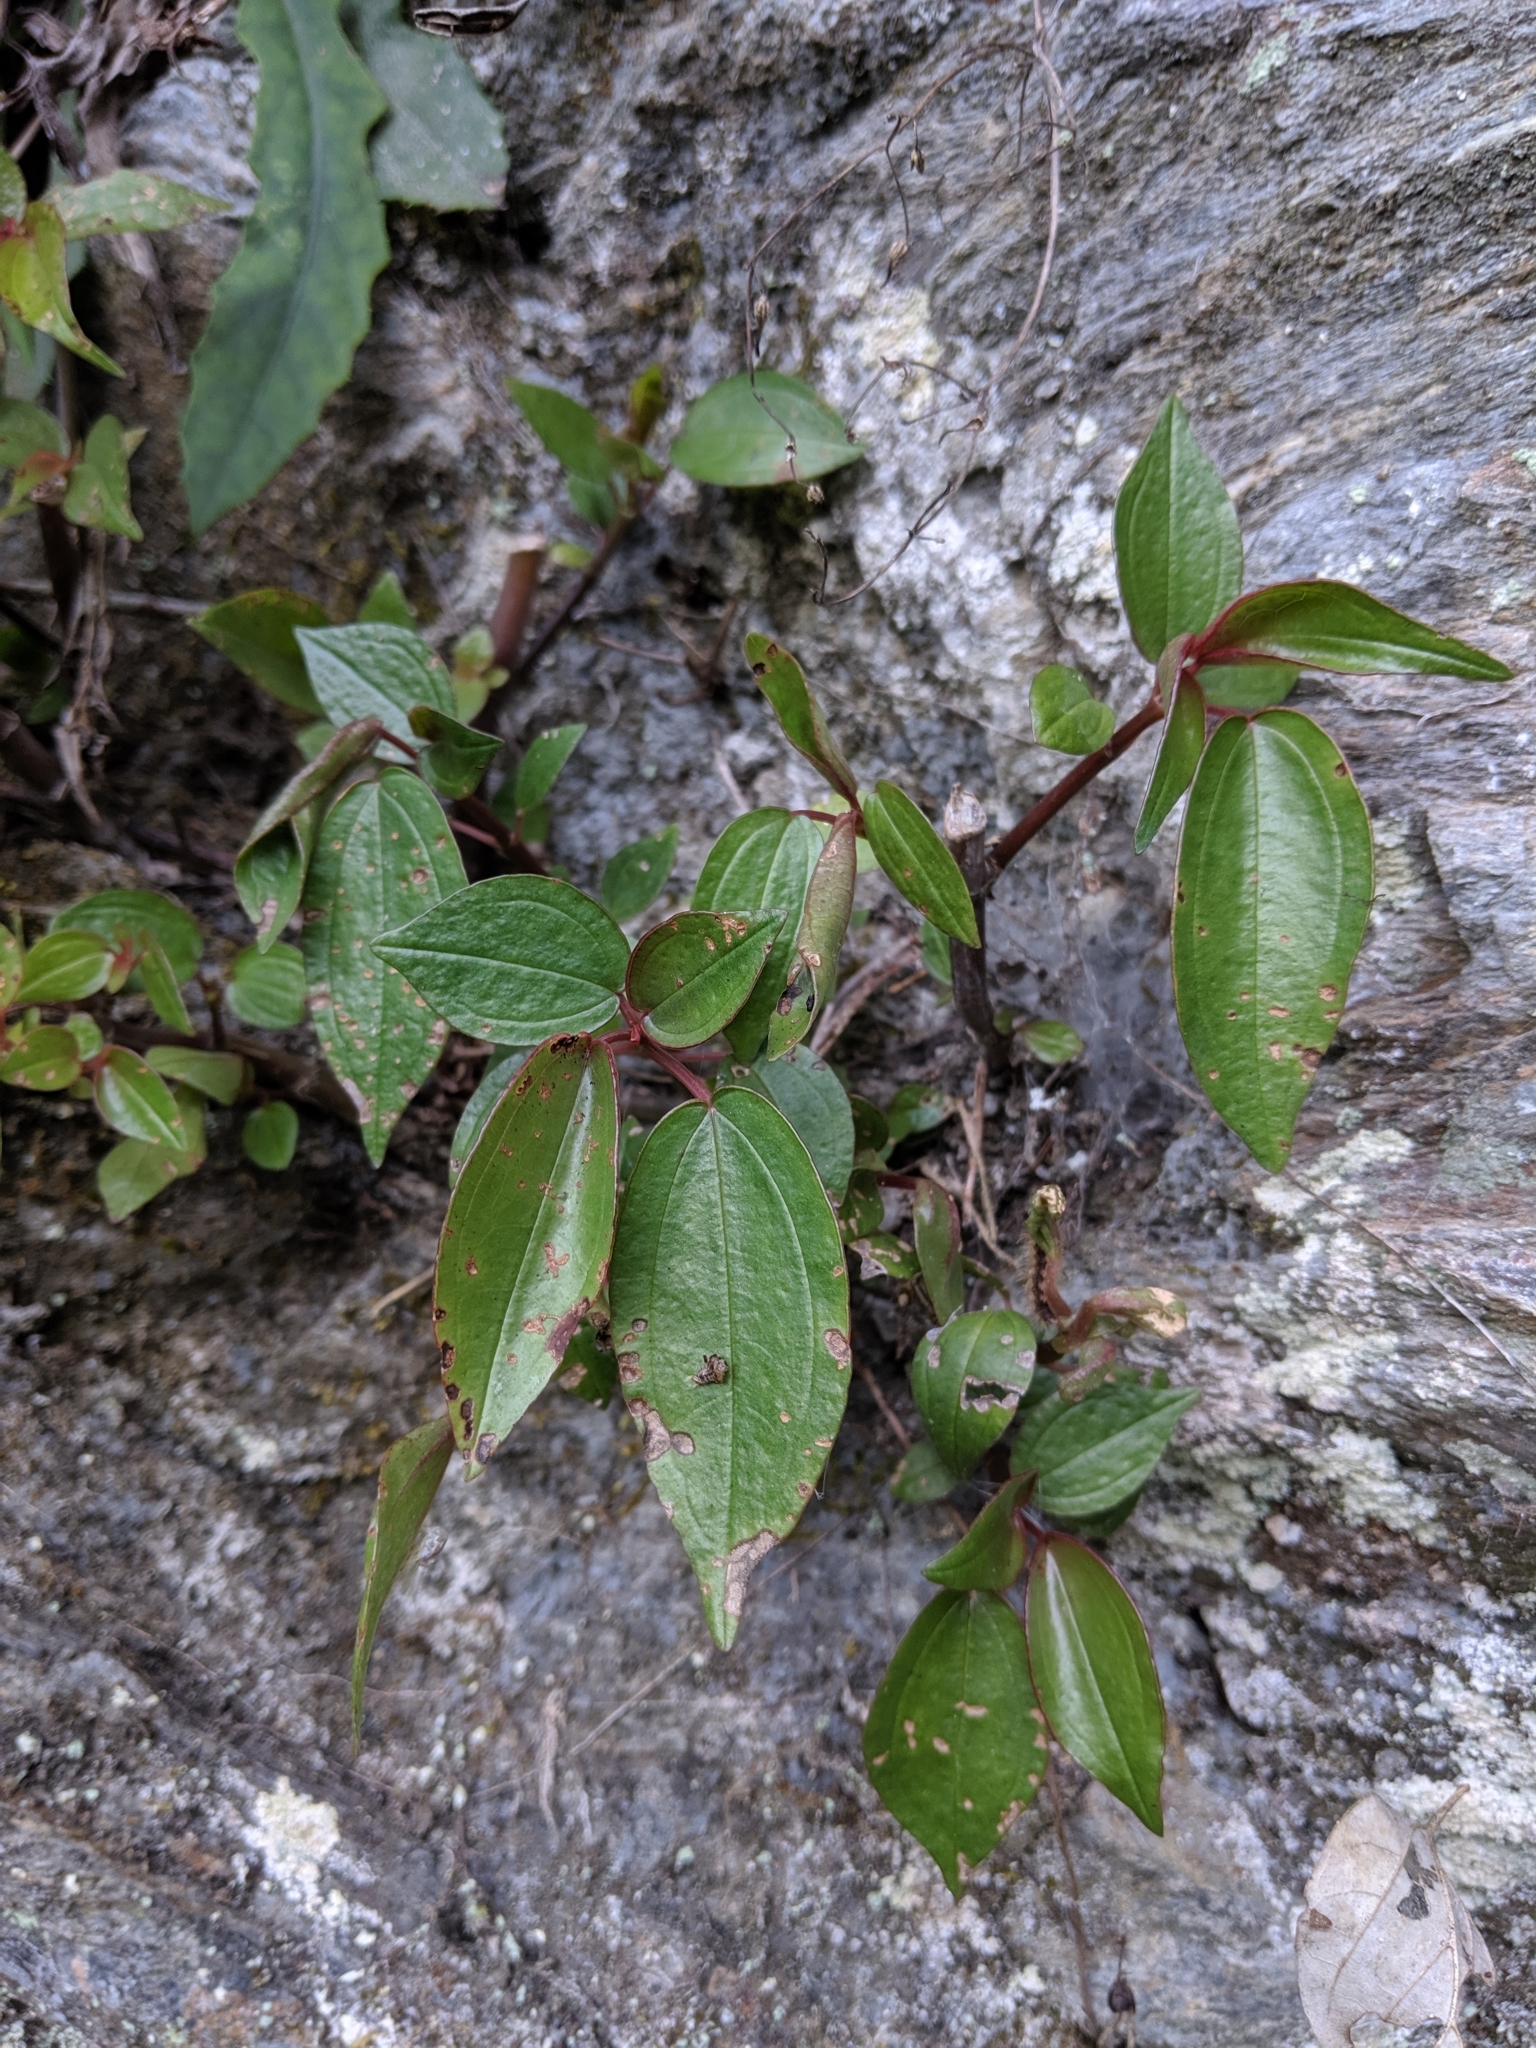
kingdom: Plantae
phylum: Tracheophyta
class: Magnoliopsida
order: Rosales
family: Urticaceae
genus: Pilea
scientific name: Pilea plataniflora
